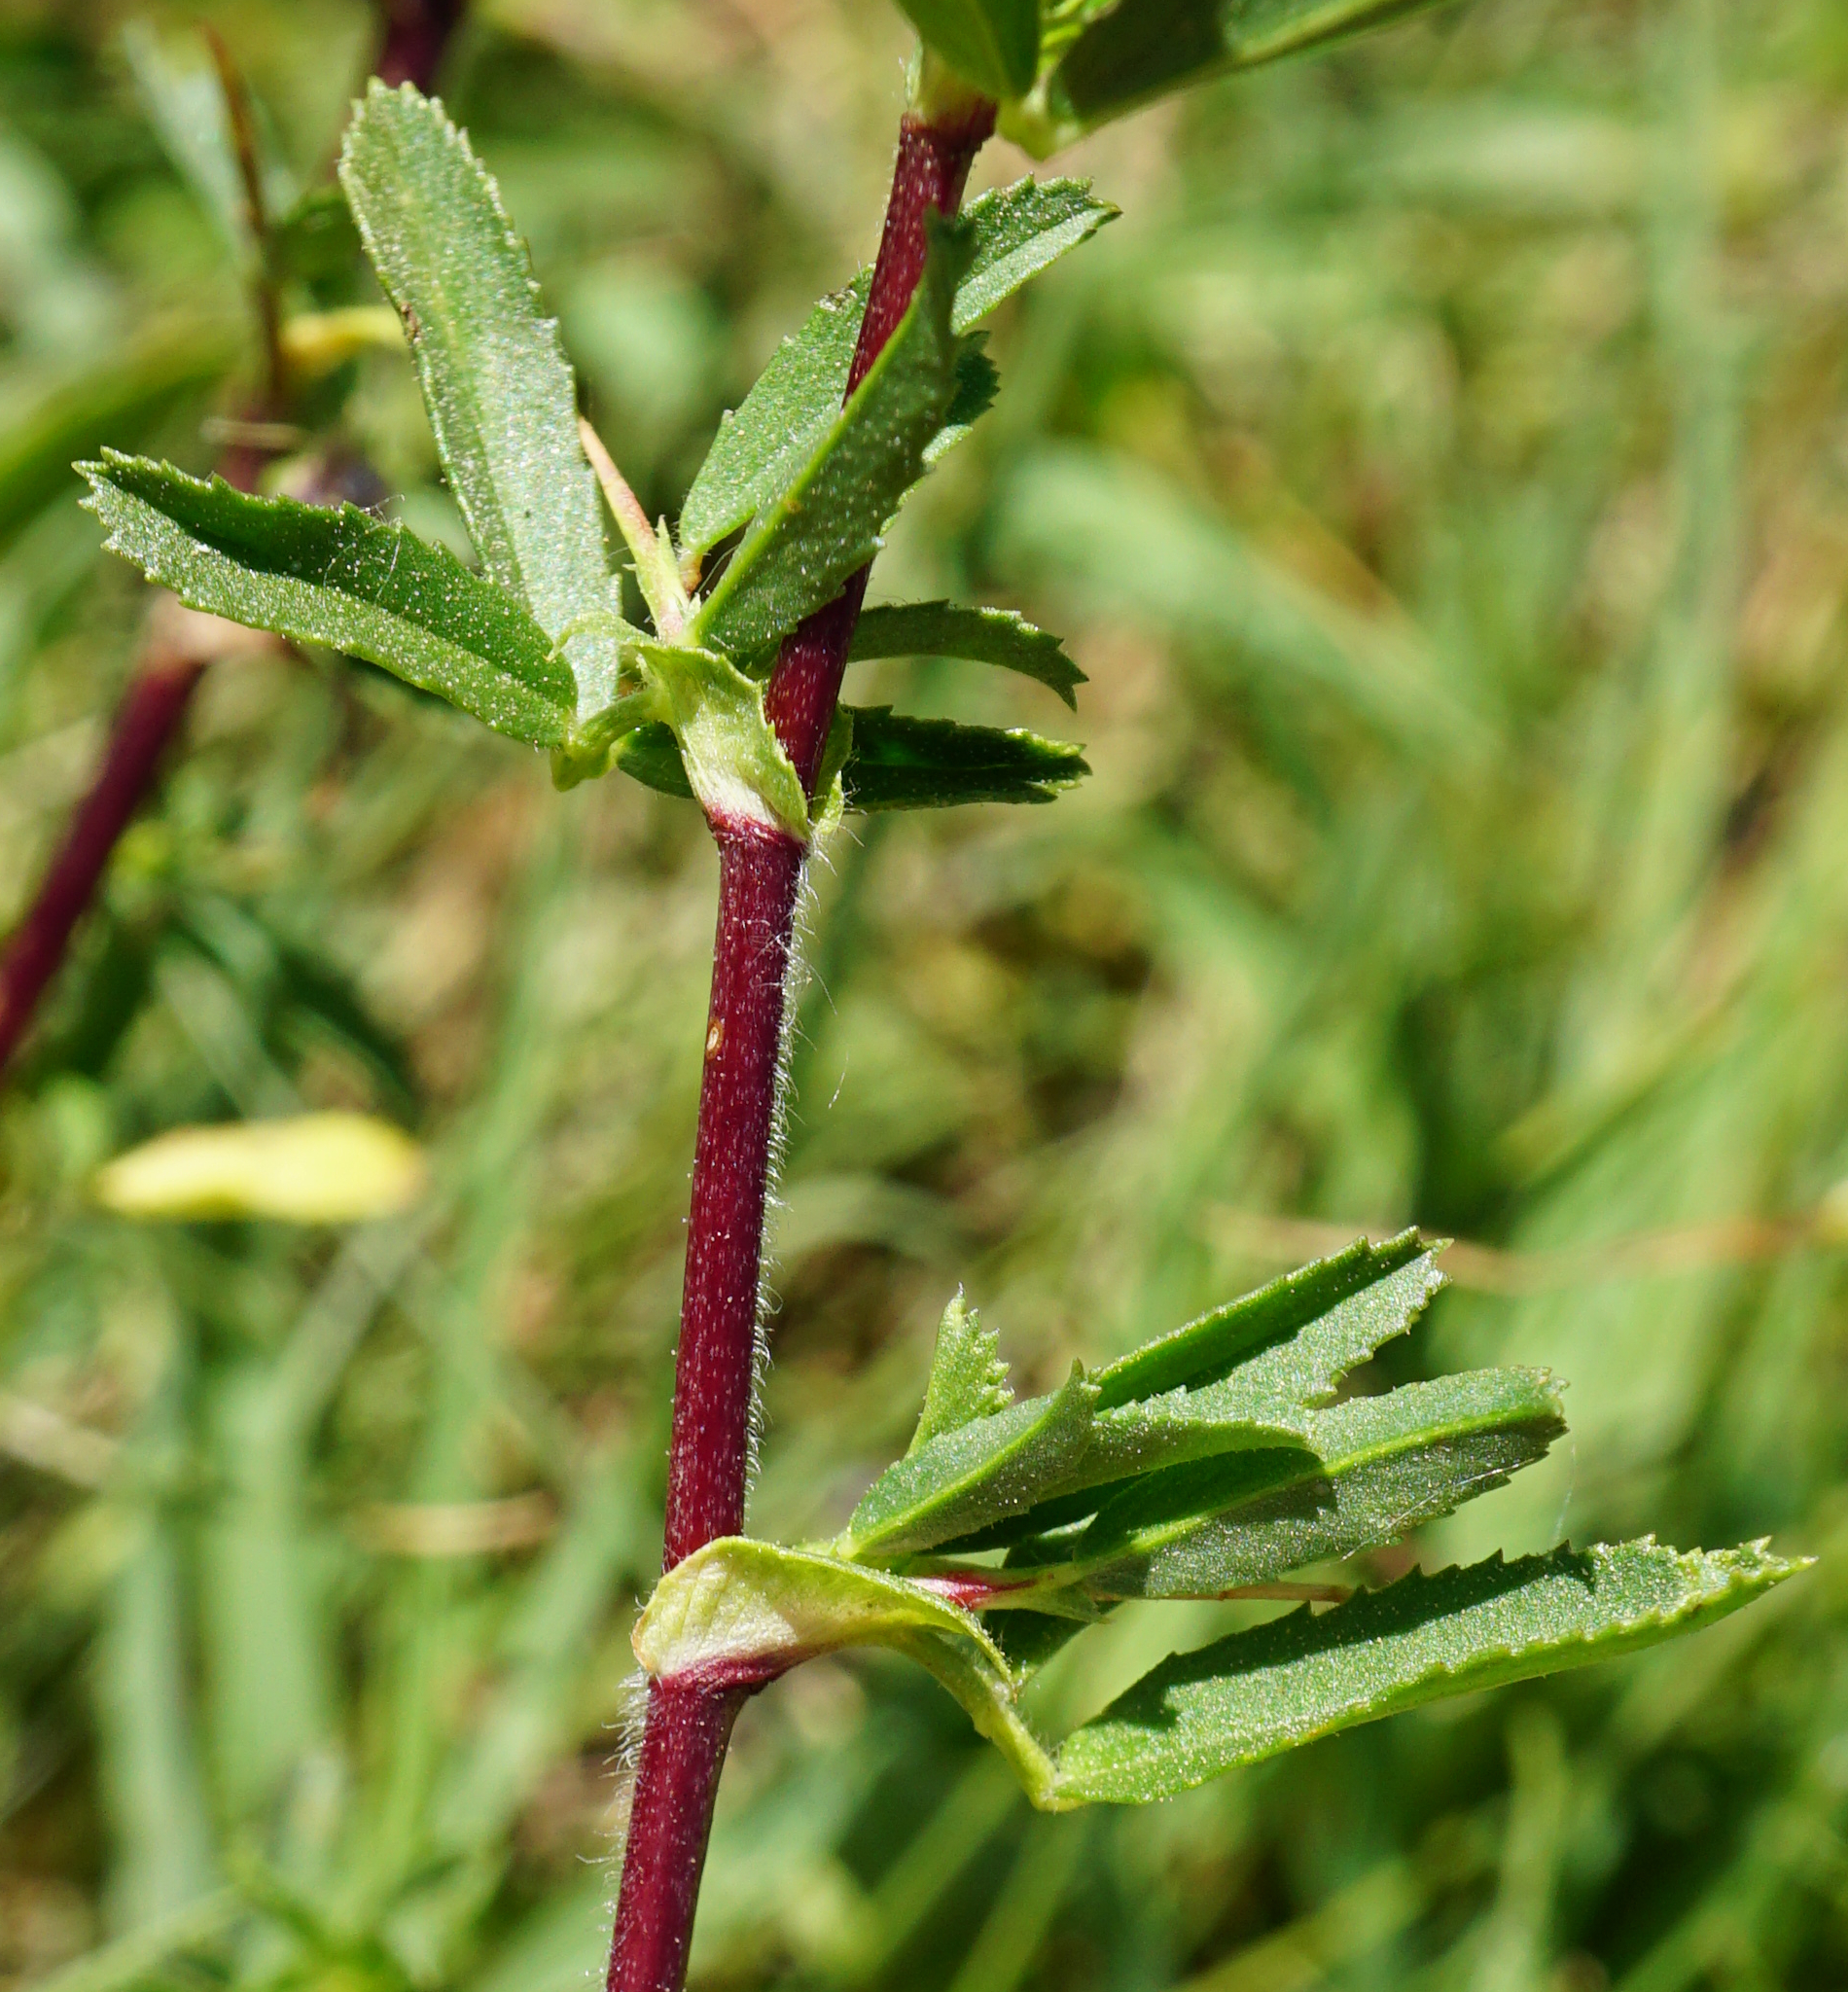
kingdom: Plantae
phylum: Tracheophyta
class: Magnoliopsida
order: Fabales
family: Fabaceae
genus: Ononis
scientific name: Ononis spinosa
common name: Spiny restharrow
